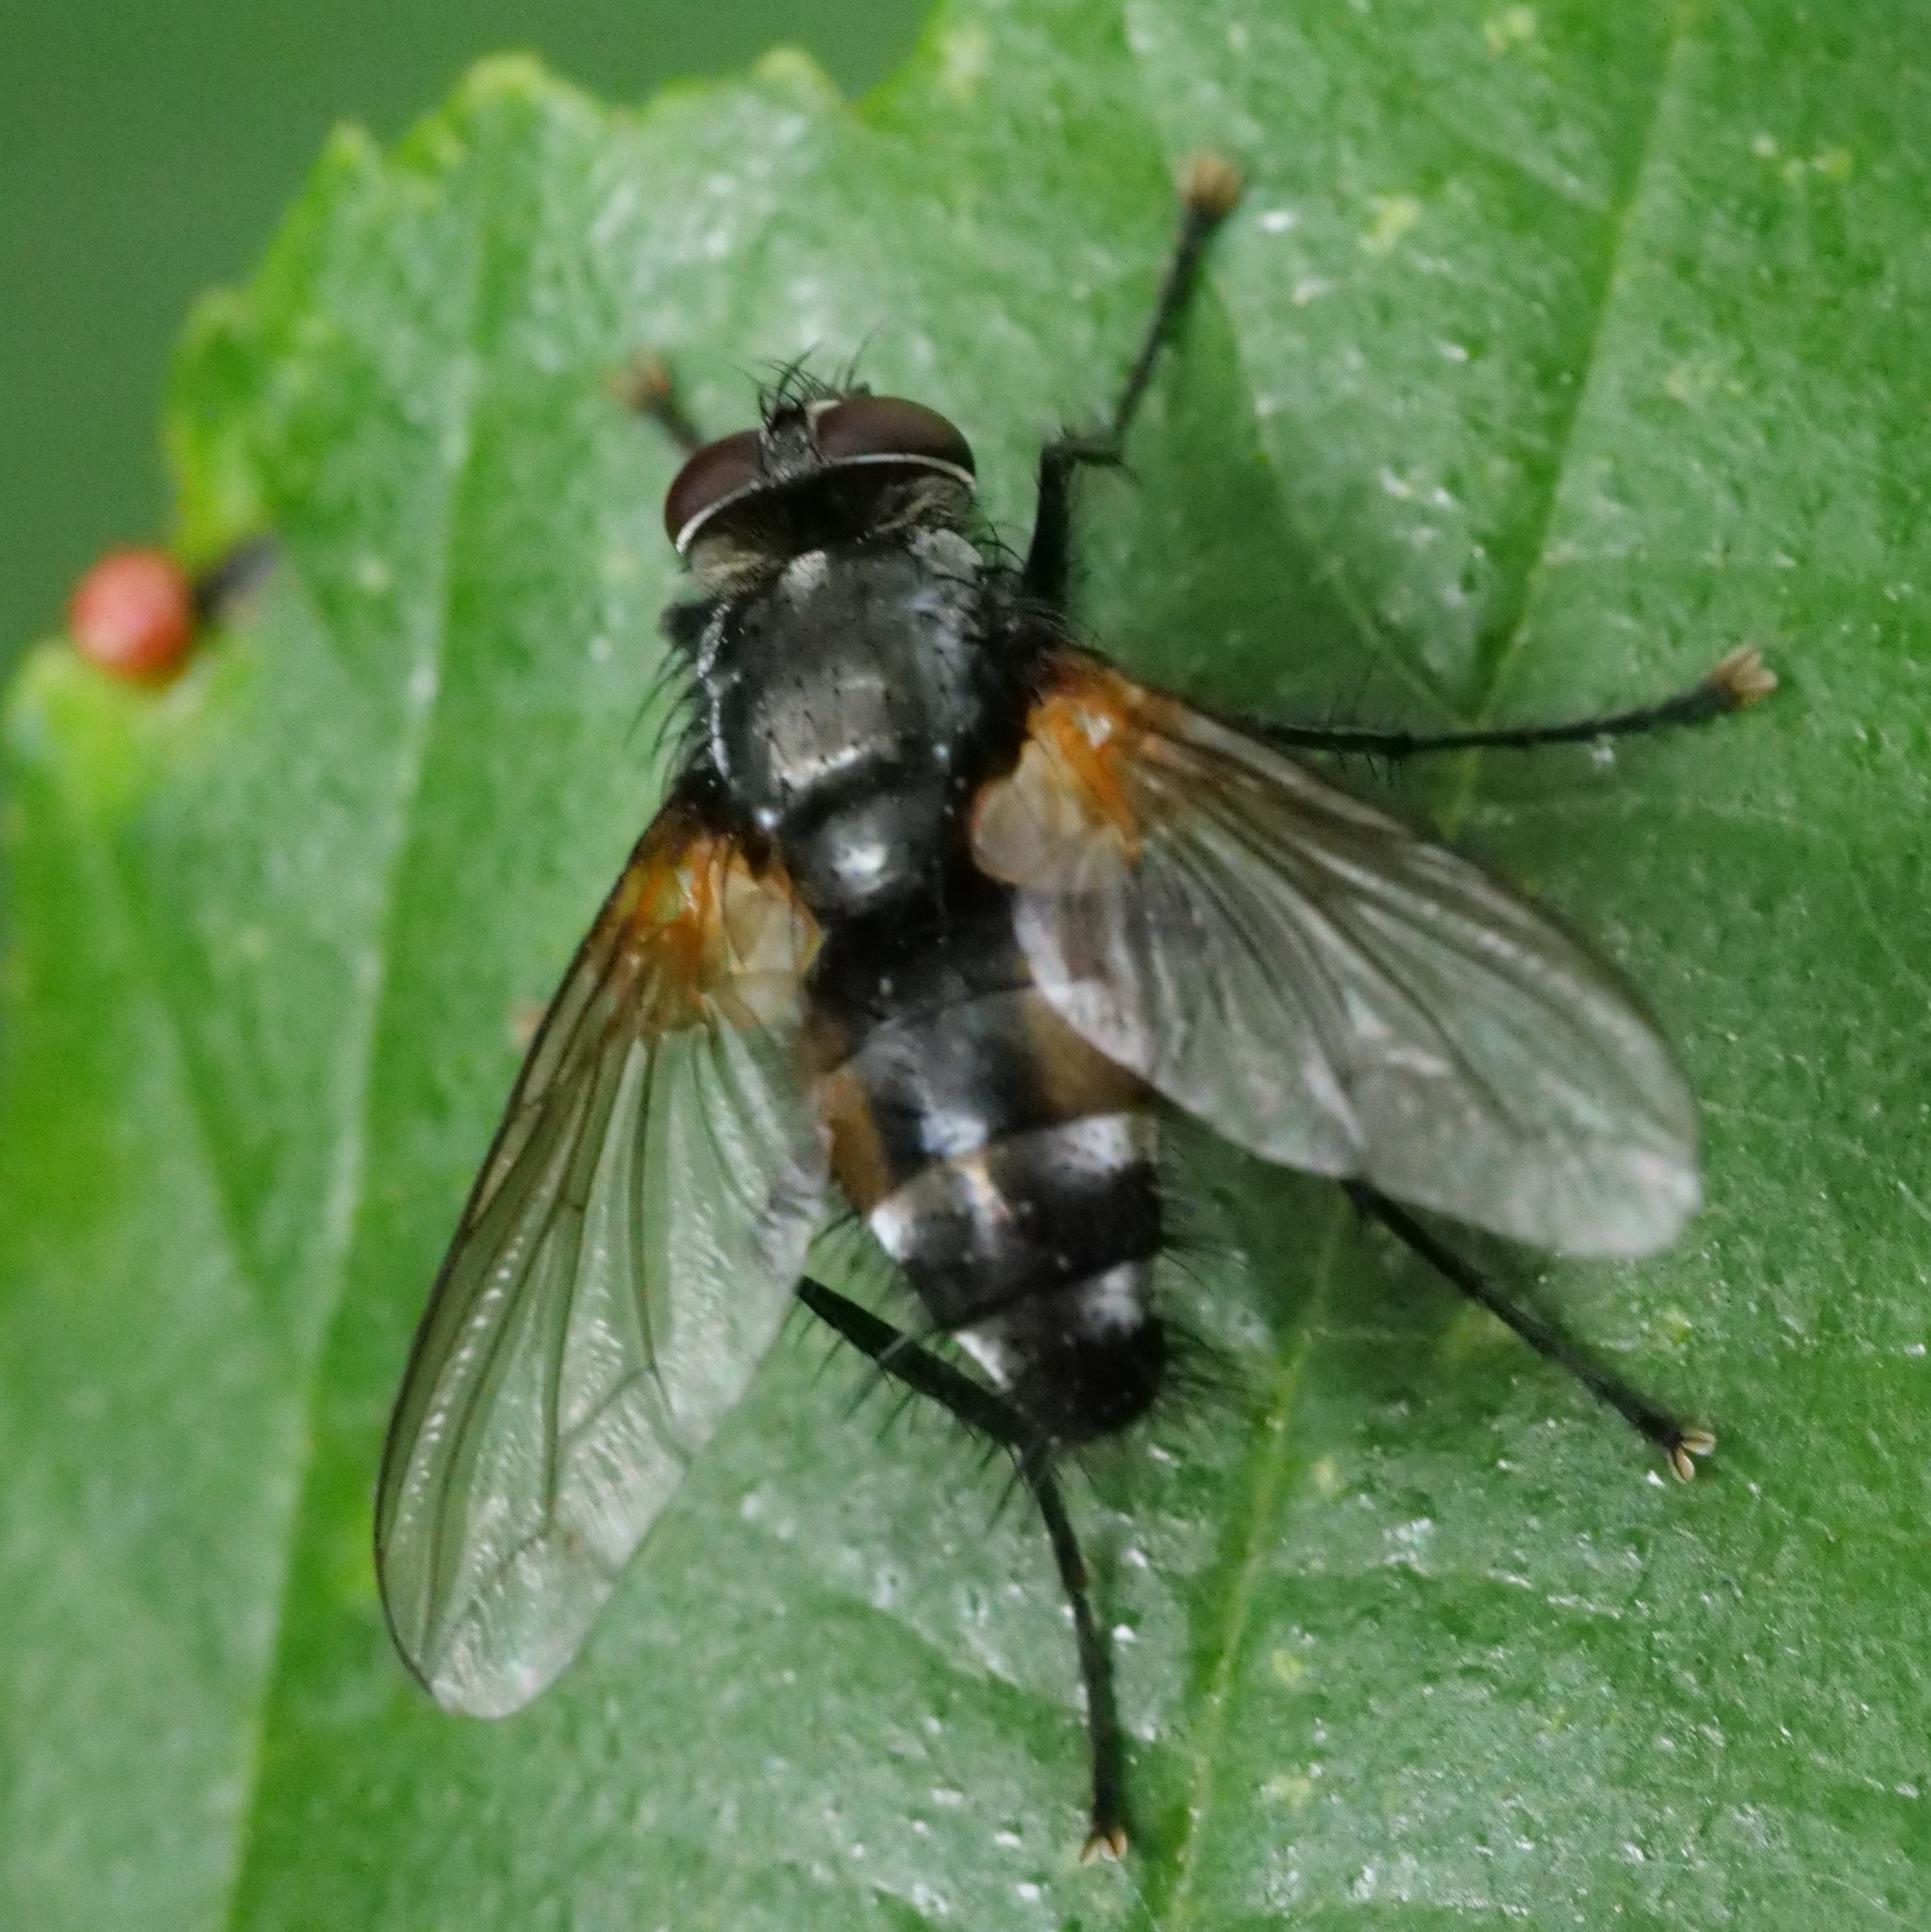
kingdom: Animalia
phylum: Arthropoda
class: Insecta
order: Diptera
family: Tachinidae
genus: Thelaira
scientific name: Thelaira nigripes
